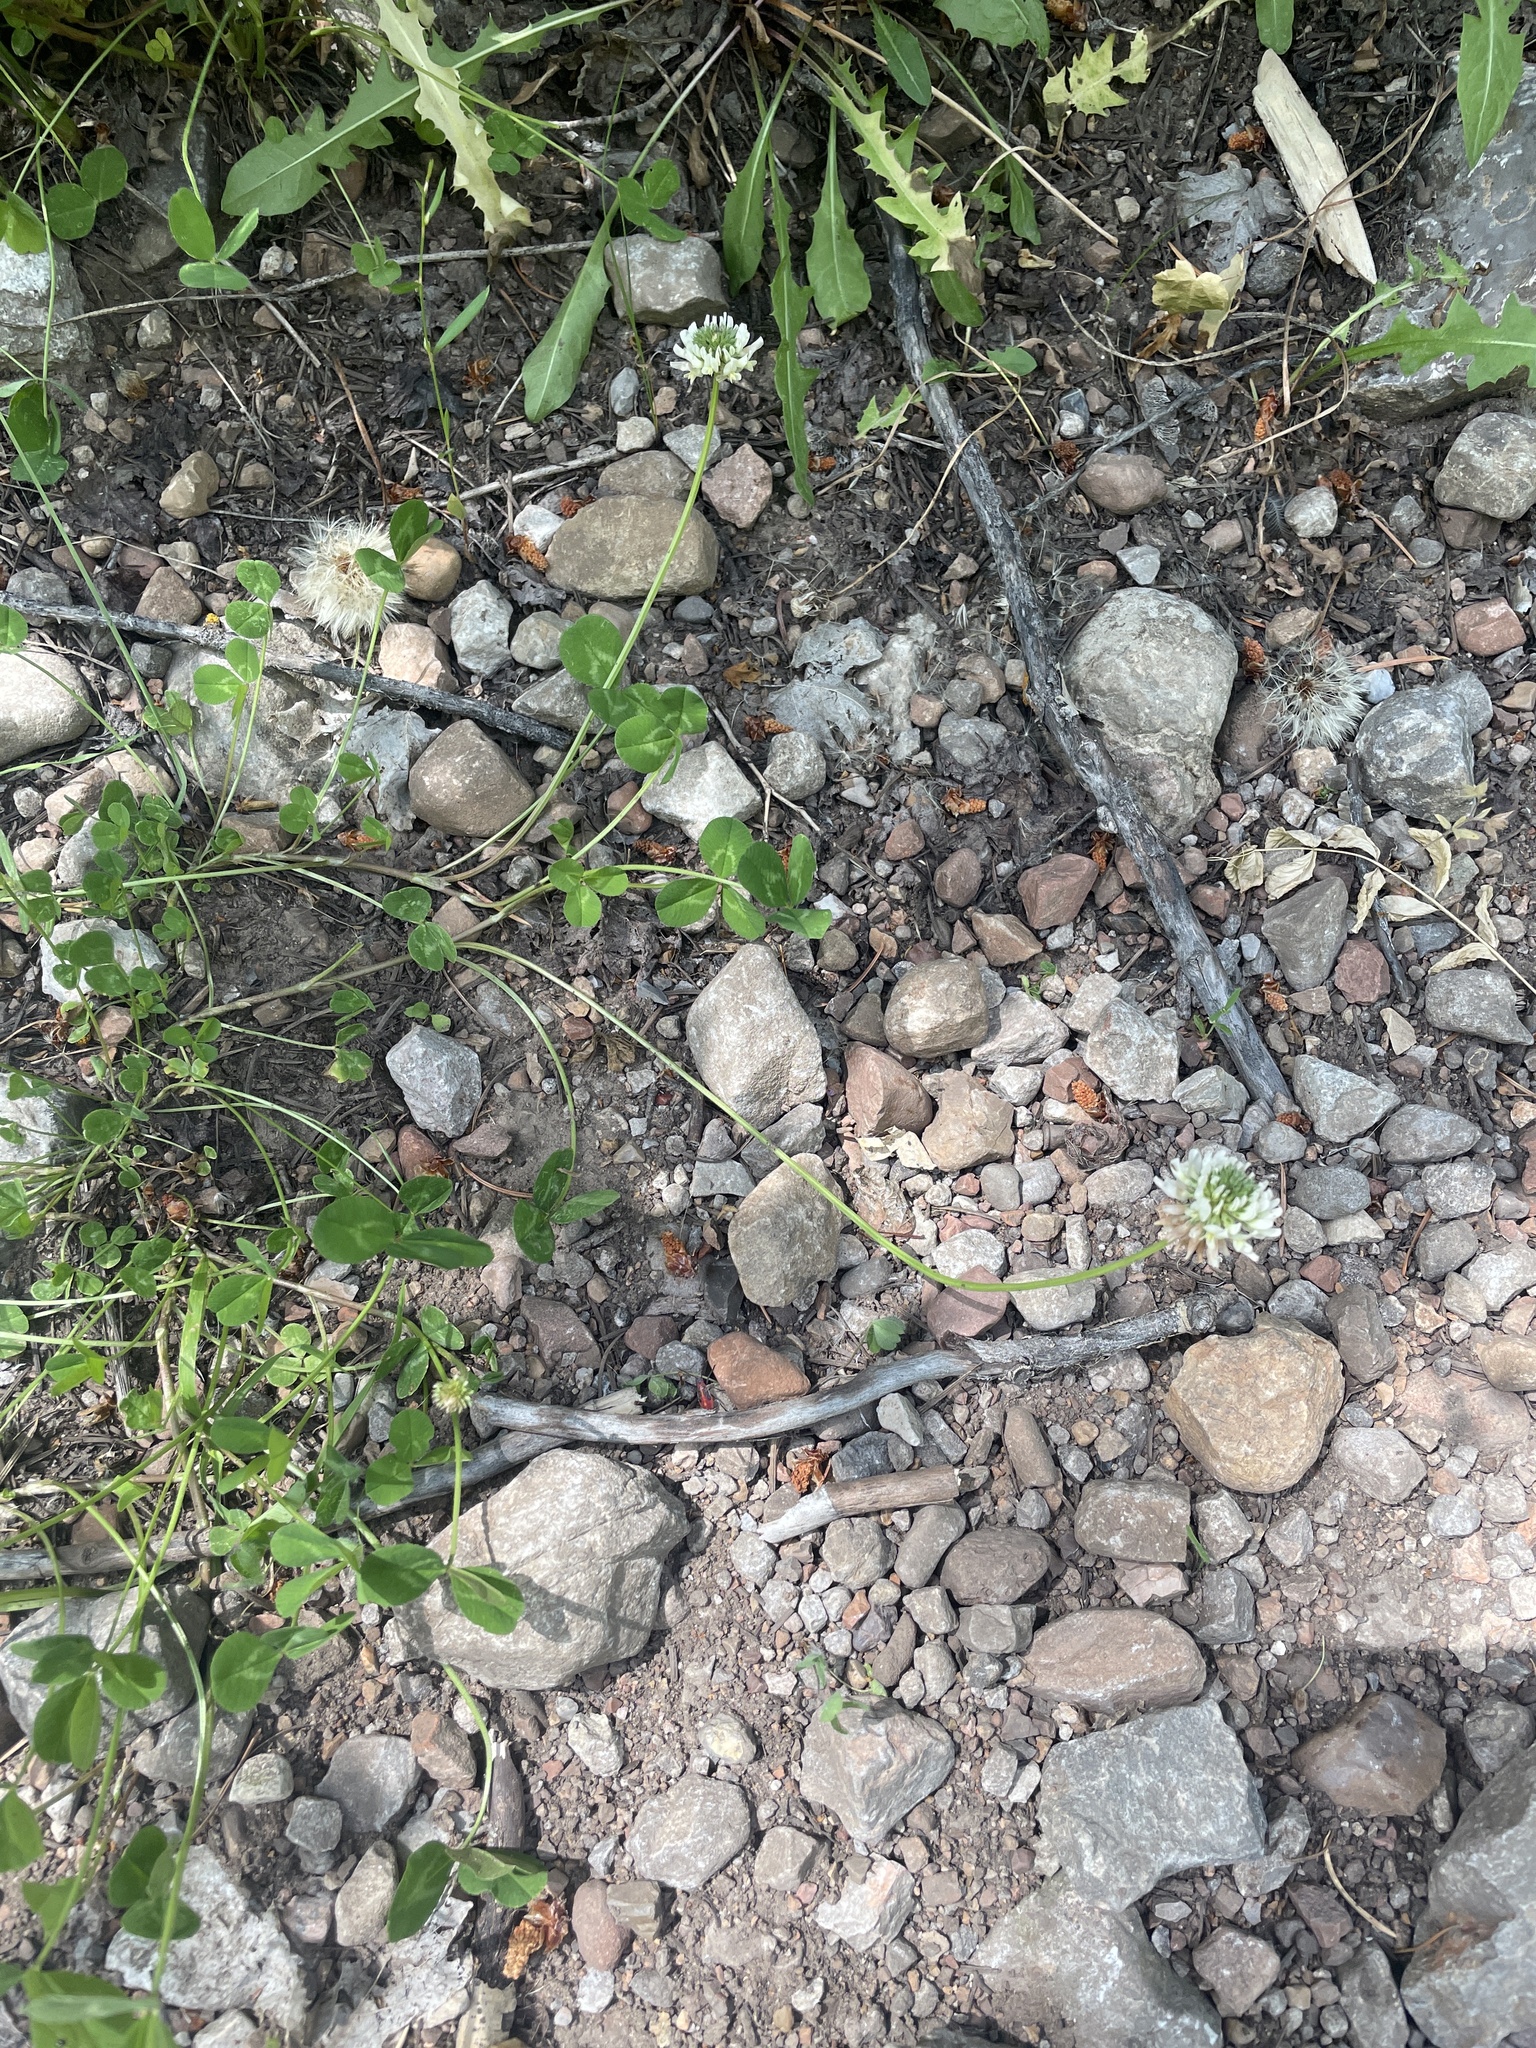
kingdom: Plantae
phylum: Tracheophyta
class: Magnoliopsida
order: Fabales
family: Fabaceae
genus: Trifolium
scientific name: Trifolium repens
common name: White clover
